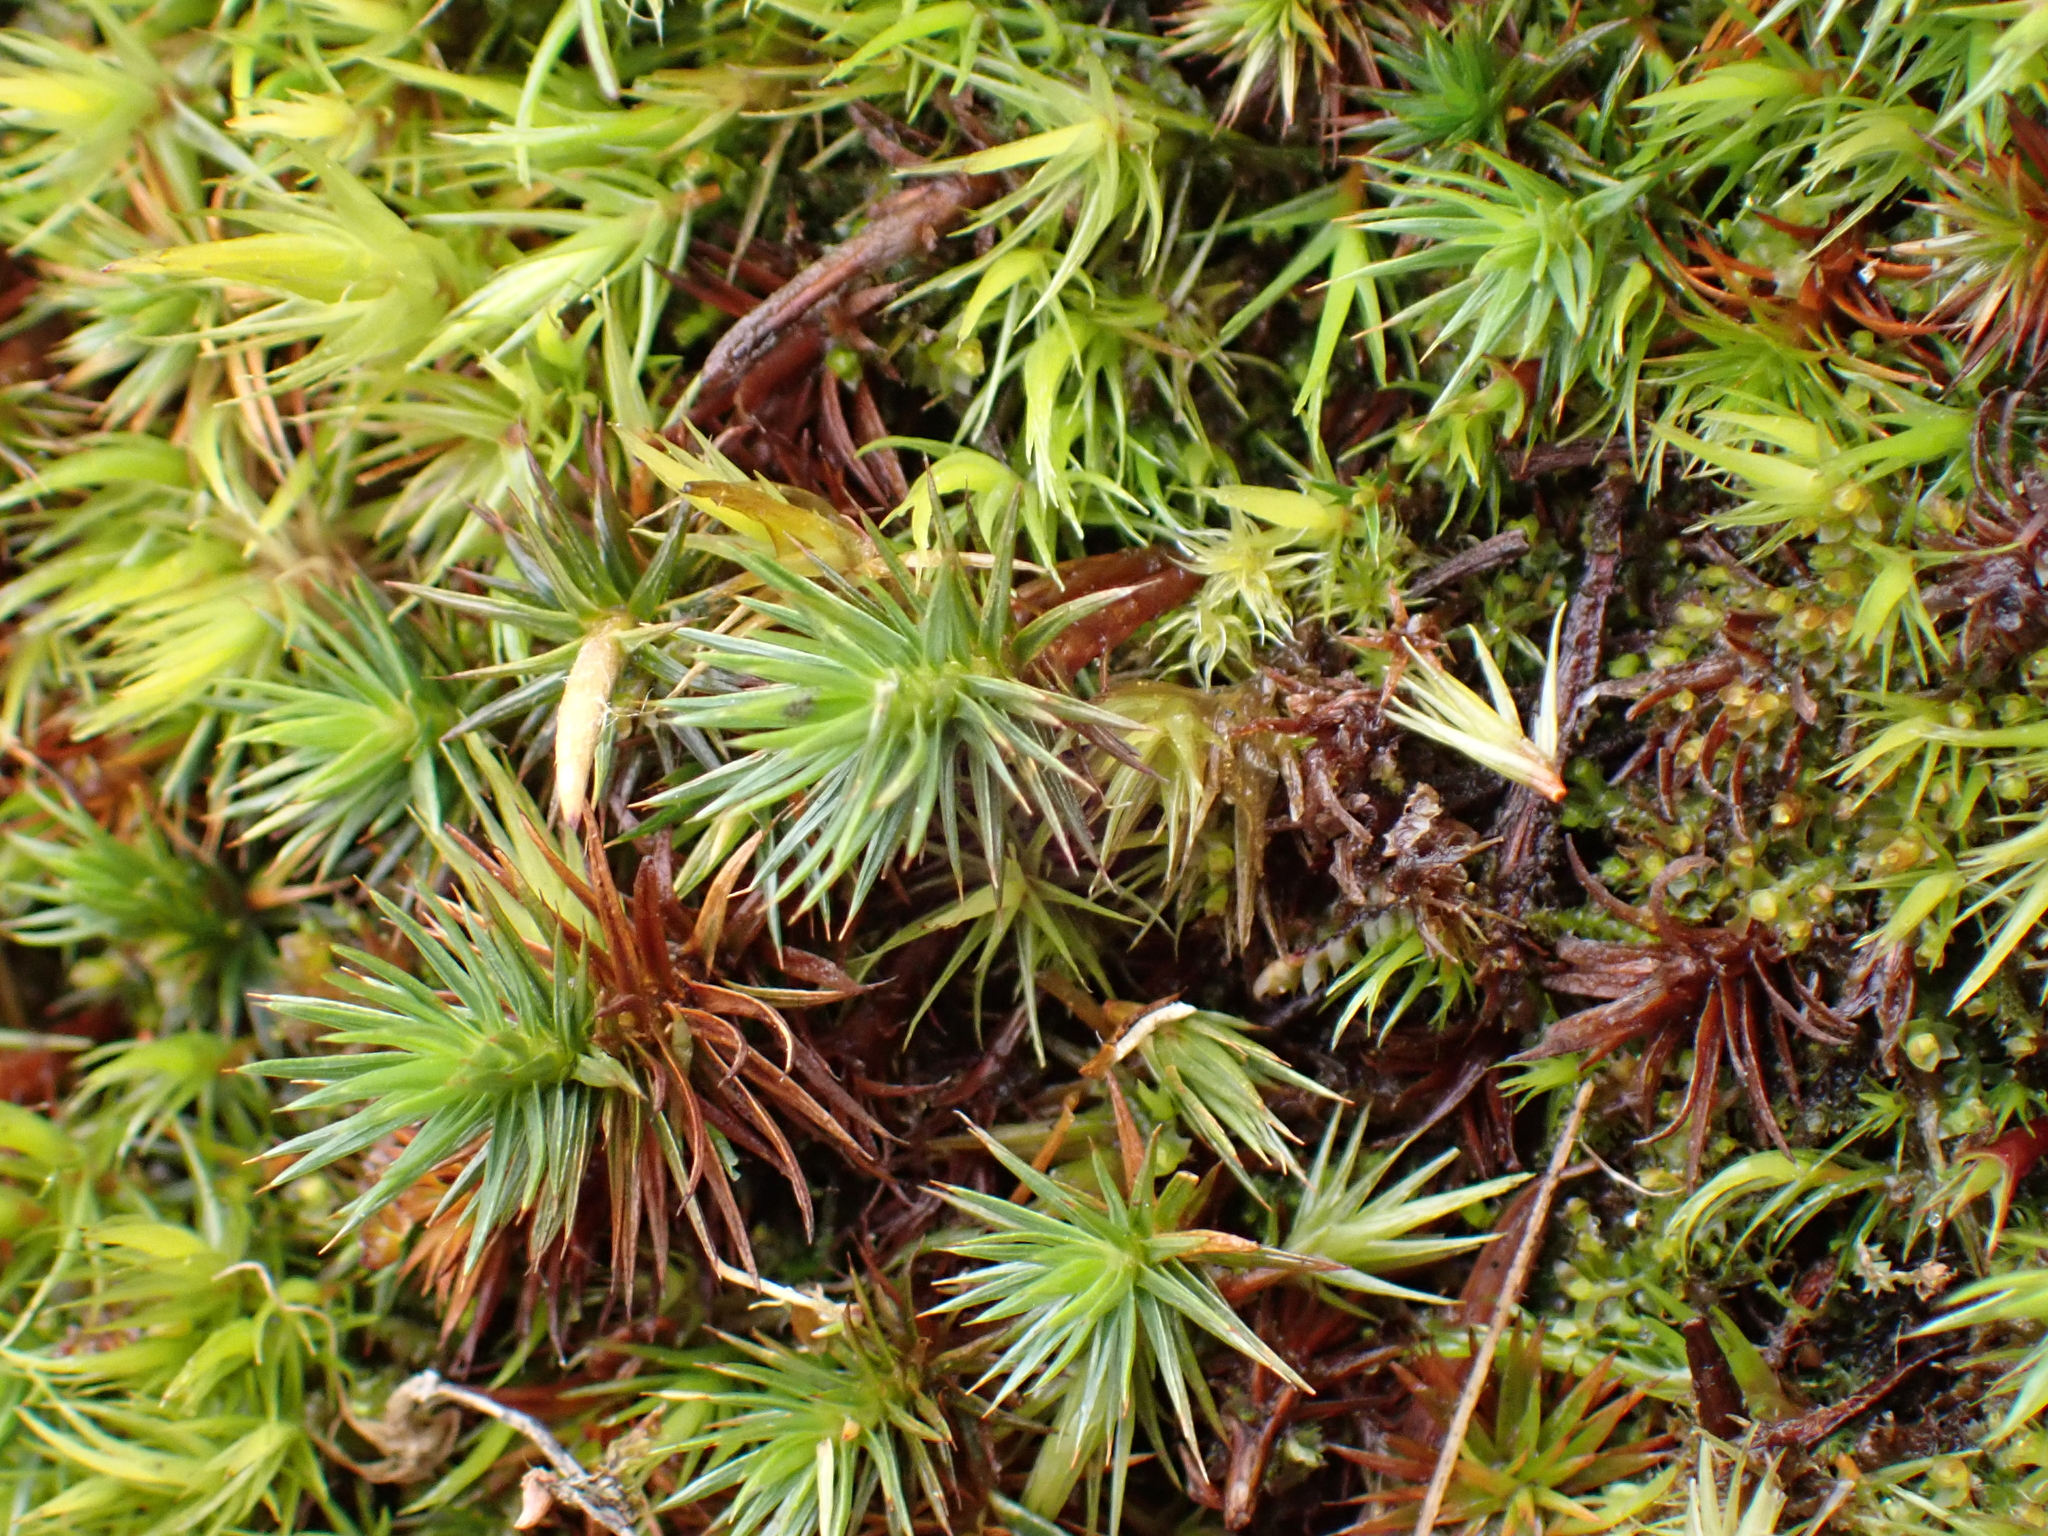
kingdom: Plantae
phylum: Bryophyta
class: Polytrichopsida
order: Polytrichales
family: Polytrichaceae
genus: Polytrichum
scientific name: Polytrichum juniperinum
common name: Juniper haircap moss
